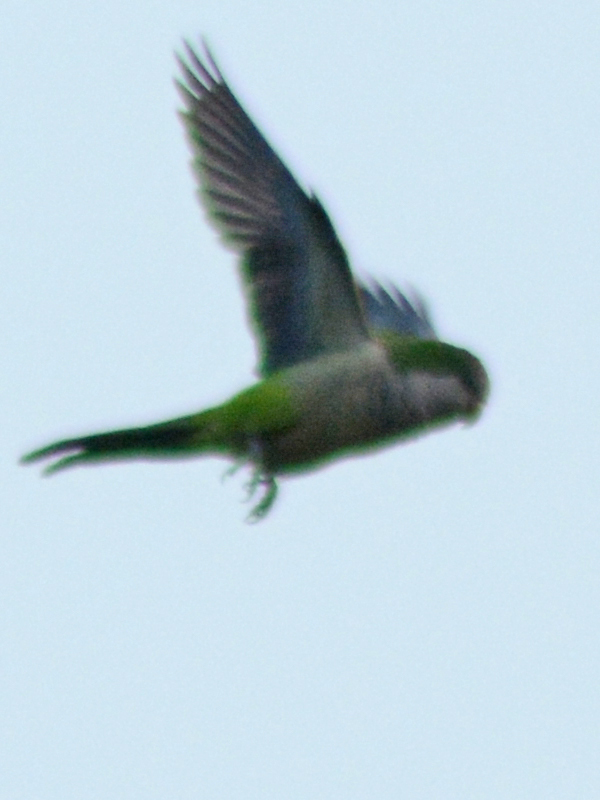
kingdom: Animalia
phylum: Chordata
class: Aves
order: Psittaciformes
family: Psittacidae
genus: Myiopsitta
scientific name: Myiopsitta monachus
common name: Monk parakeet
